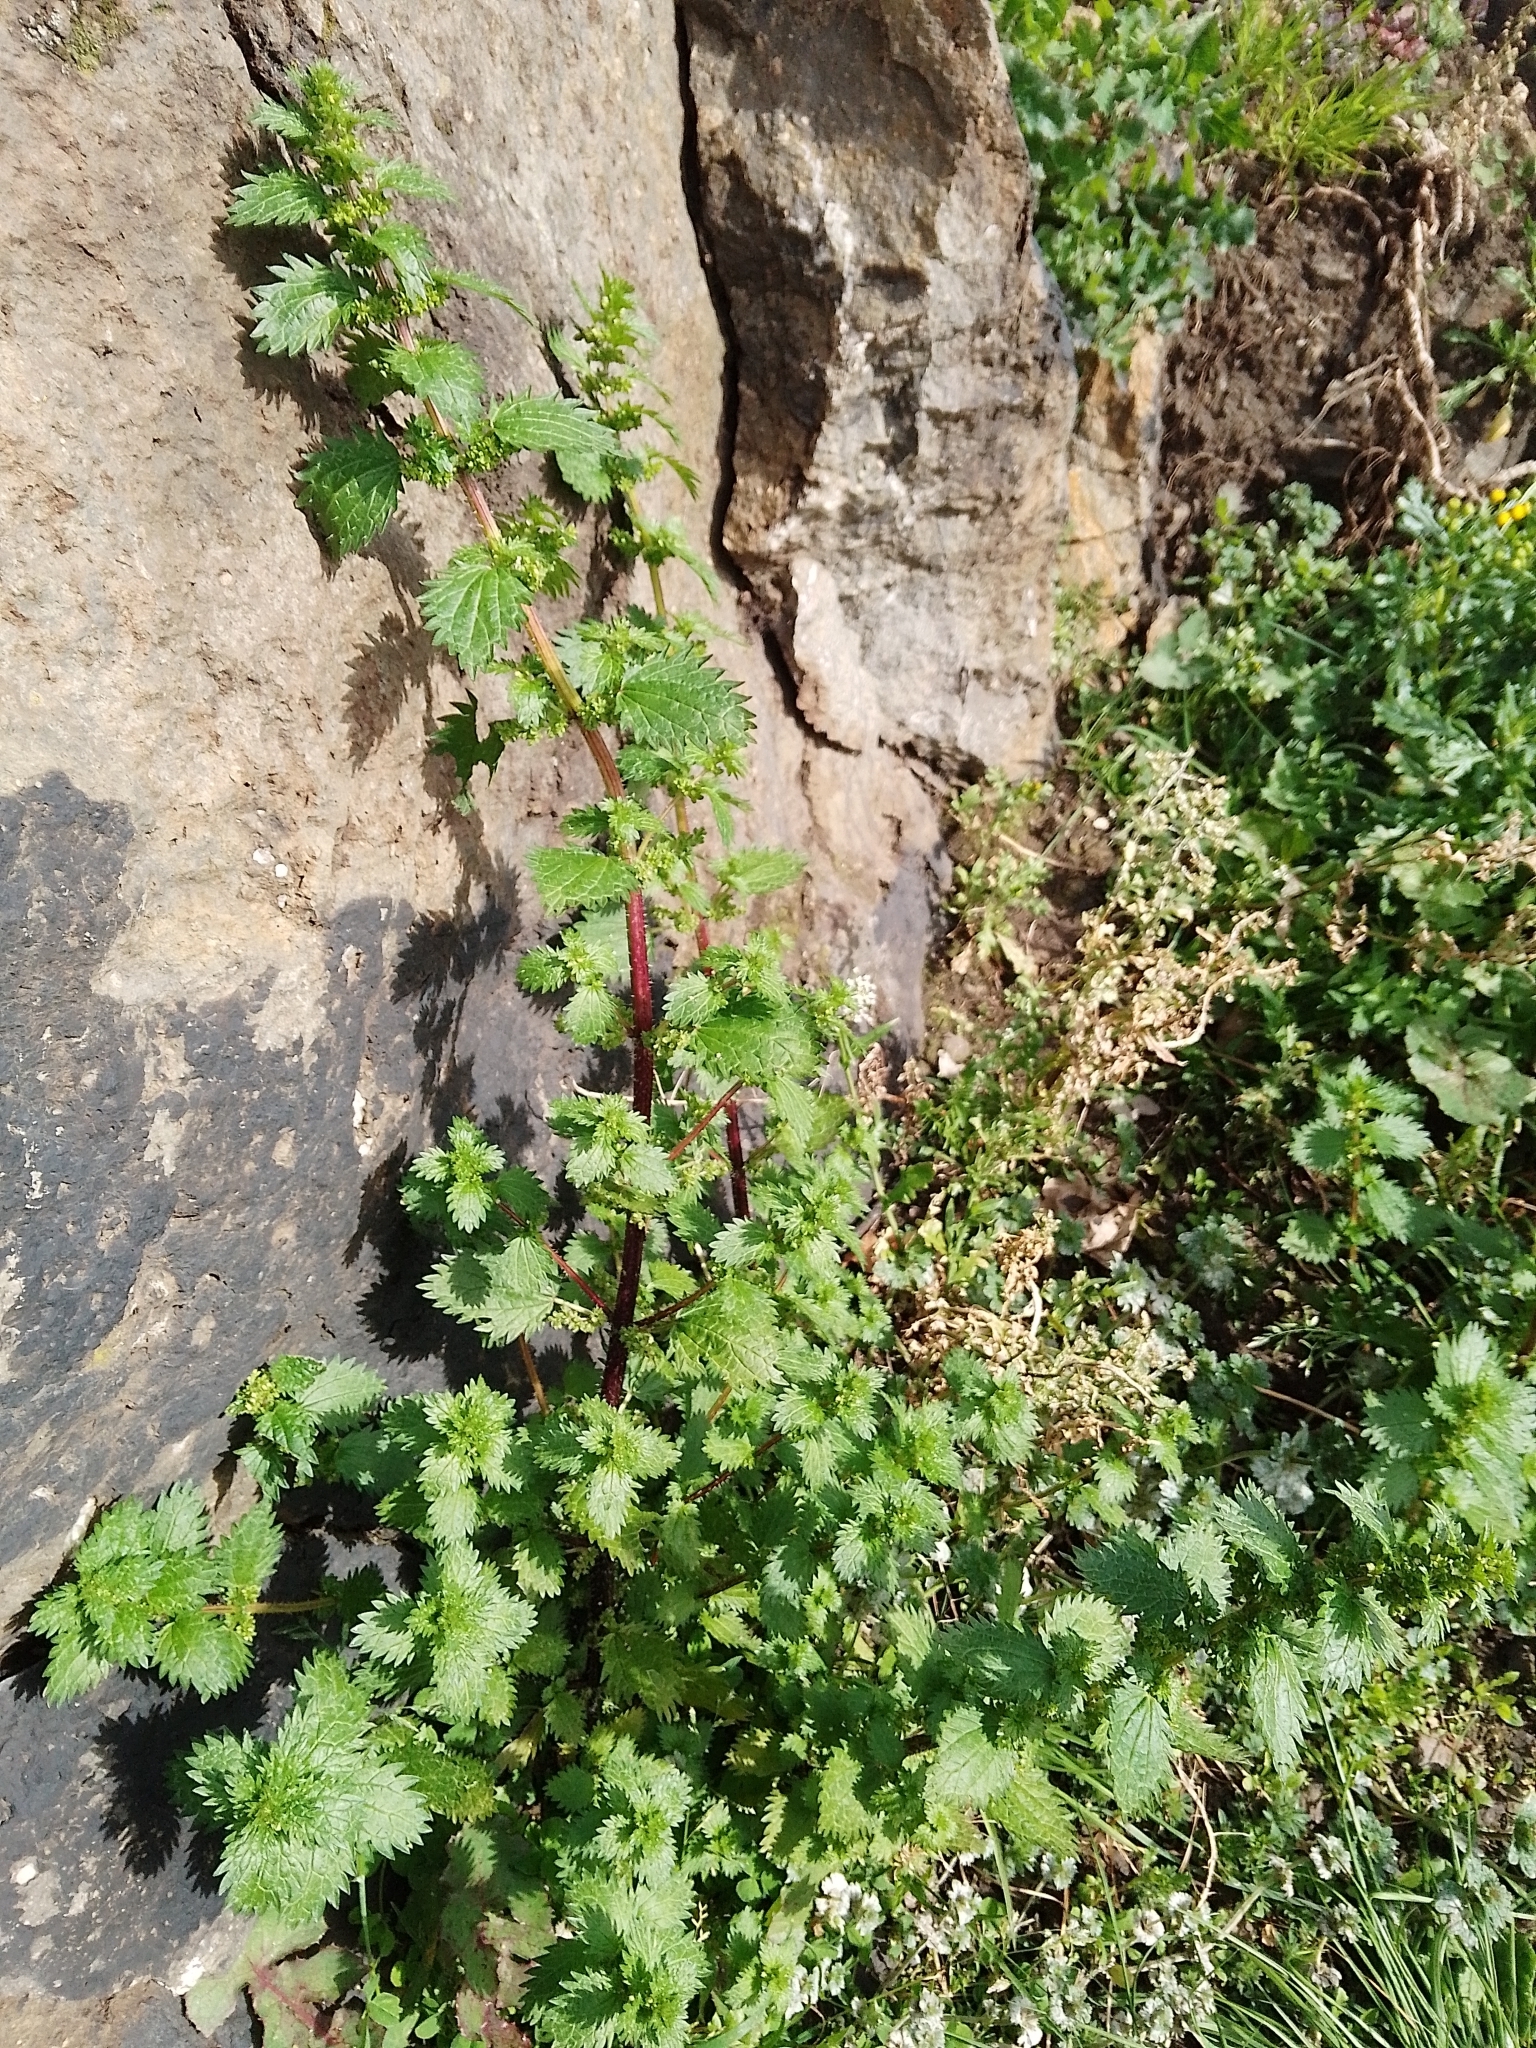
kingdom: Plantae
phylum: Tracheophyta
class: Magnoliopsida
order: Rosales
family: Urticaceae
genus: Urtica
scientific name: Urtica urens
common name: Dwarf nettle
